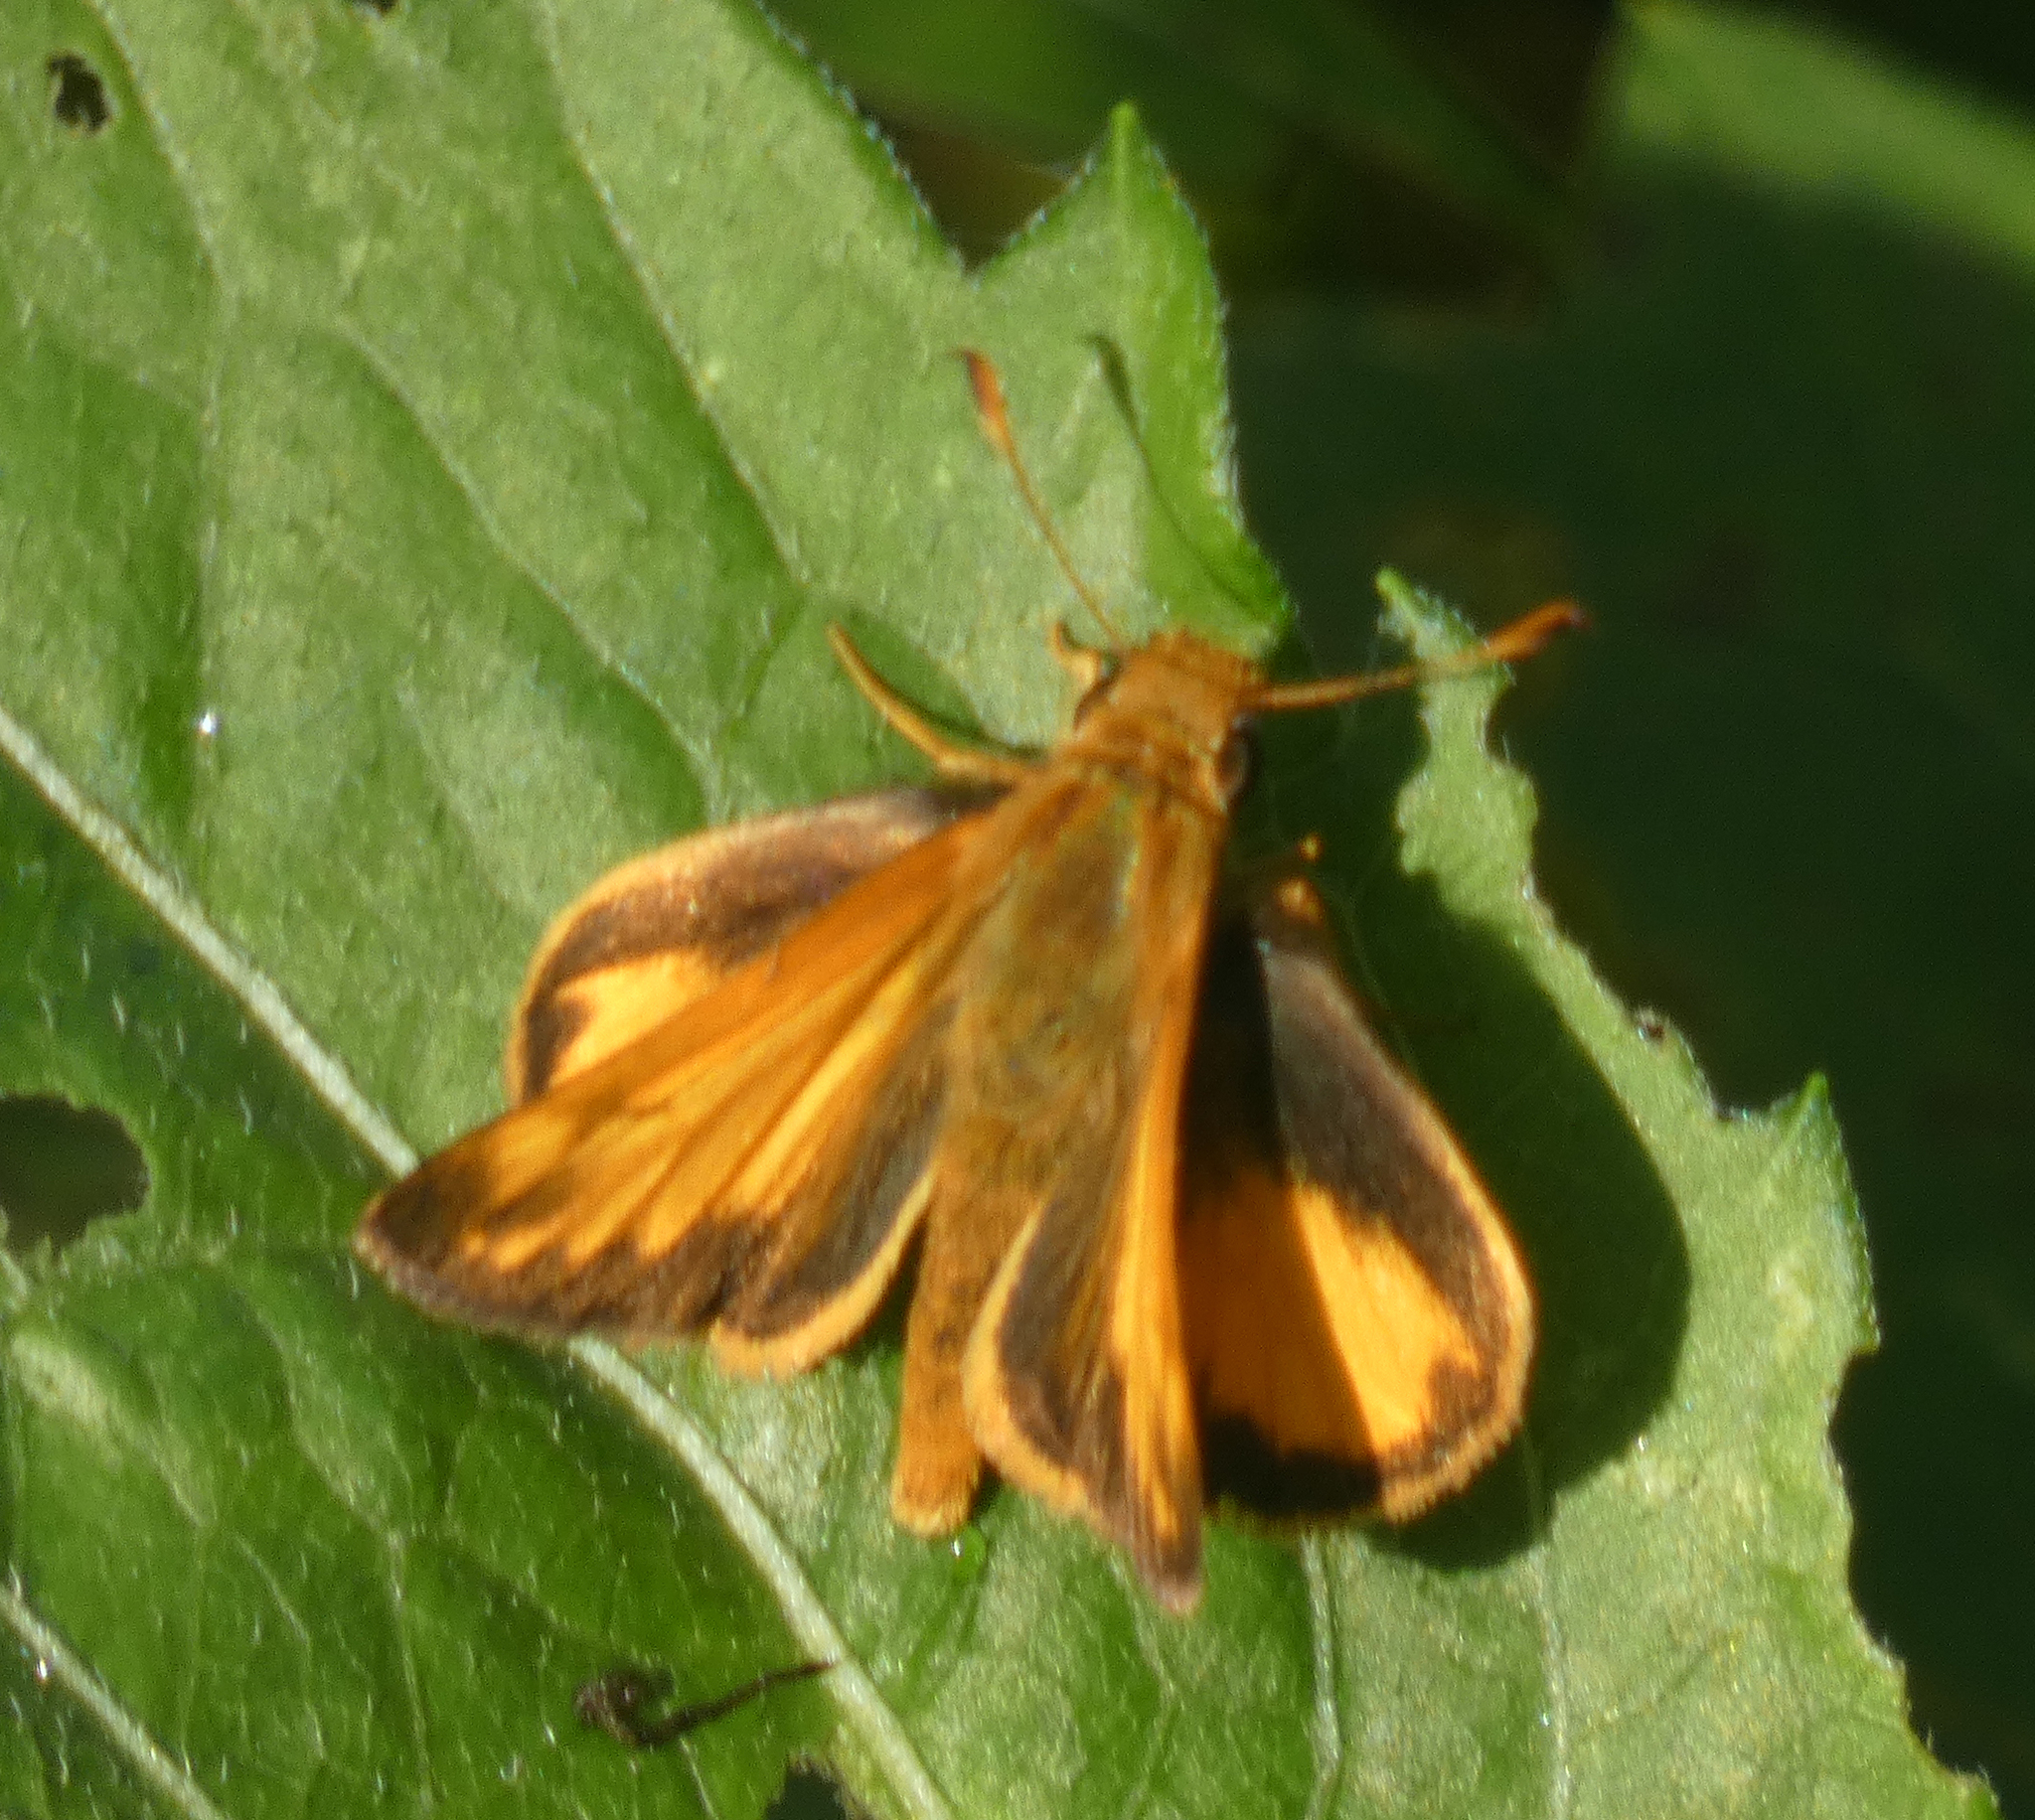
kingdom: Animalia
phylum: Arthropoda
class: Insecta
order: Lepidoptera
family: Hesperiidae
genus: Lon
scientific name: Lon zabulon
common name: Zabulon skipper
